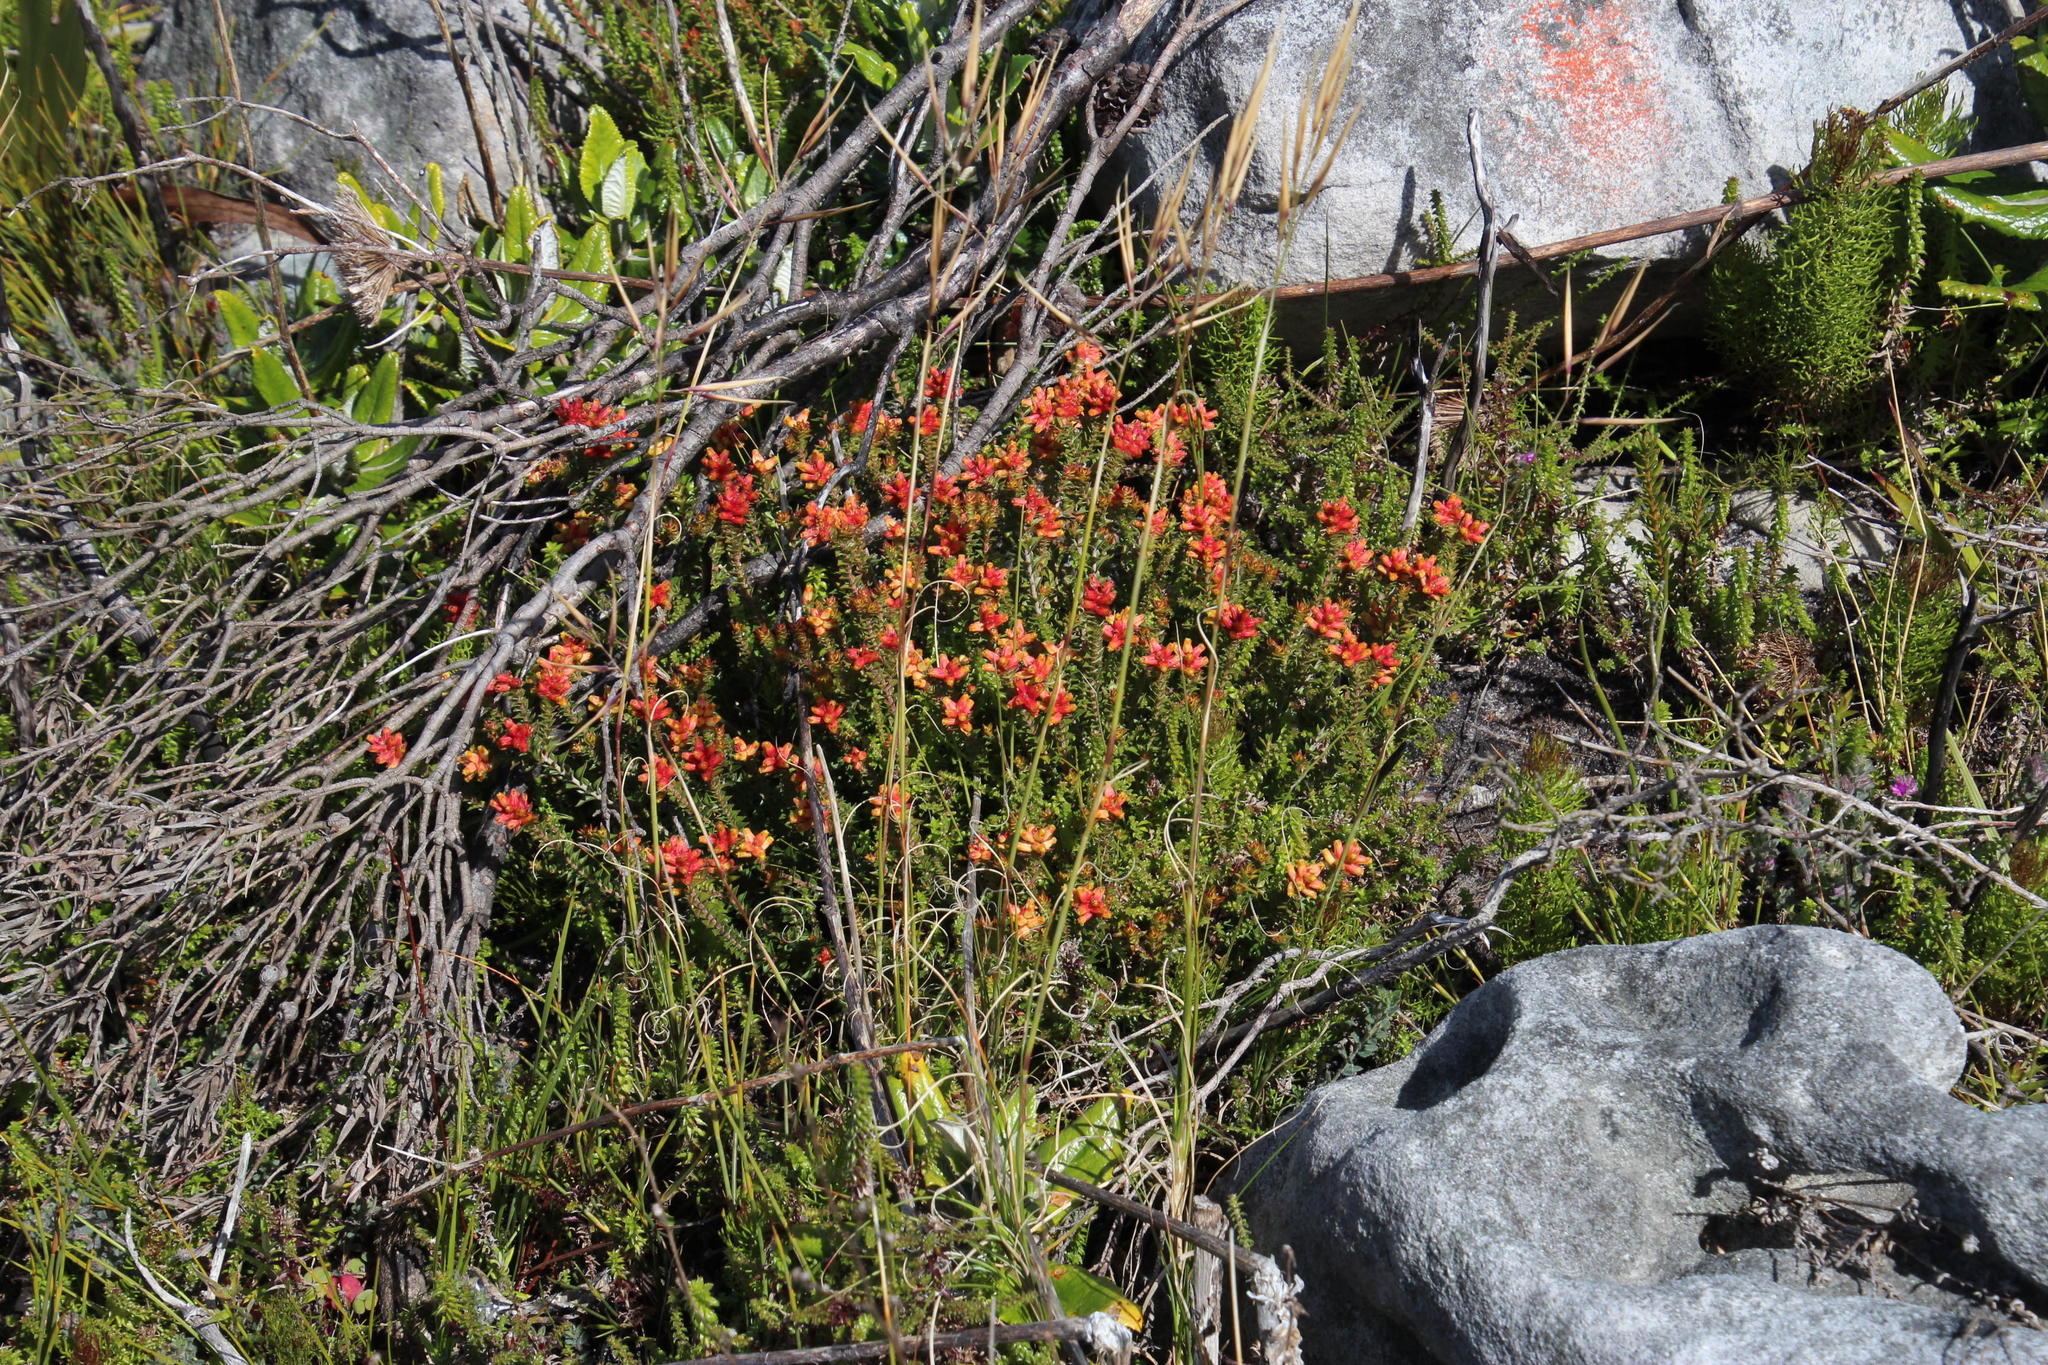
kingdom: Plantae
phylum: Tracheophyta
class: Magnoliopsida
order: Myrtales
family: Penaeaceae
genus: Penaea
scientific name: Penaea mucronata
